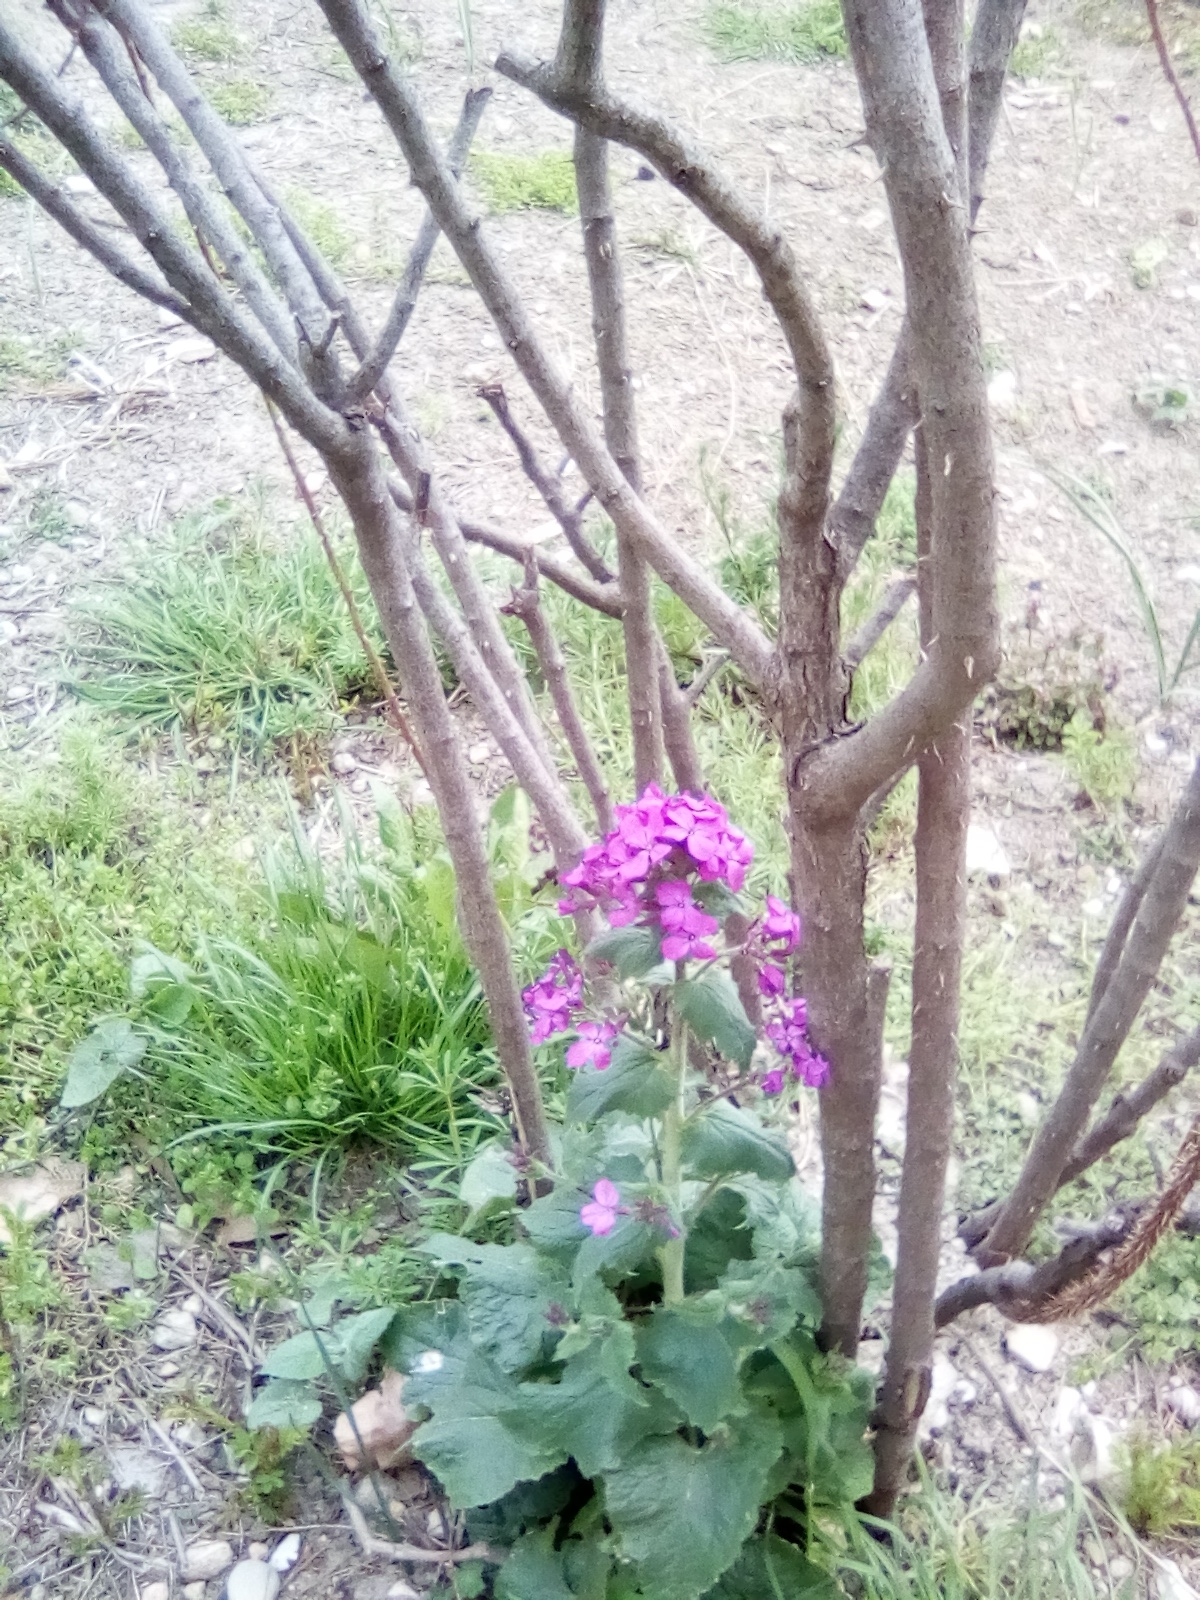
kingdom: Plantae
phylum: Tracheophyta
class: Magnoliopsida
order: Brassicales
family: Brassicaceae
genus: Lunaria
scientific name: Lunaria annua
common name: Honesty
